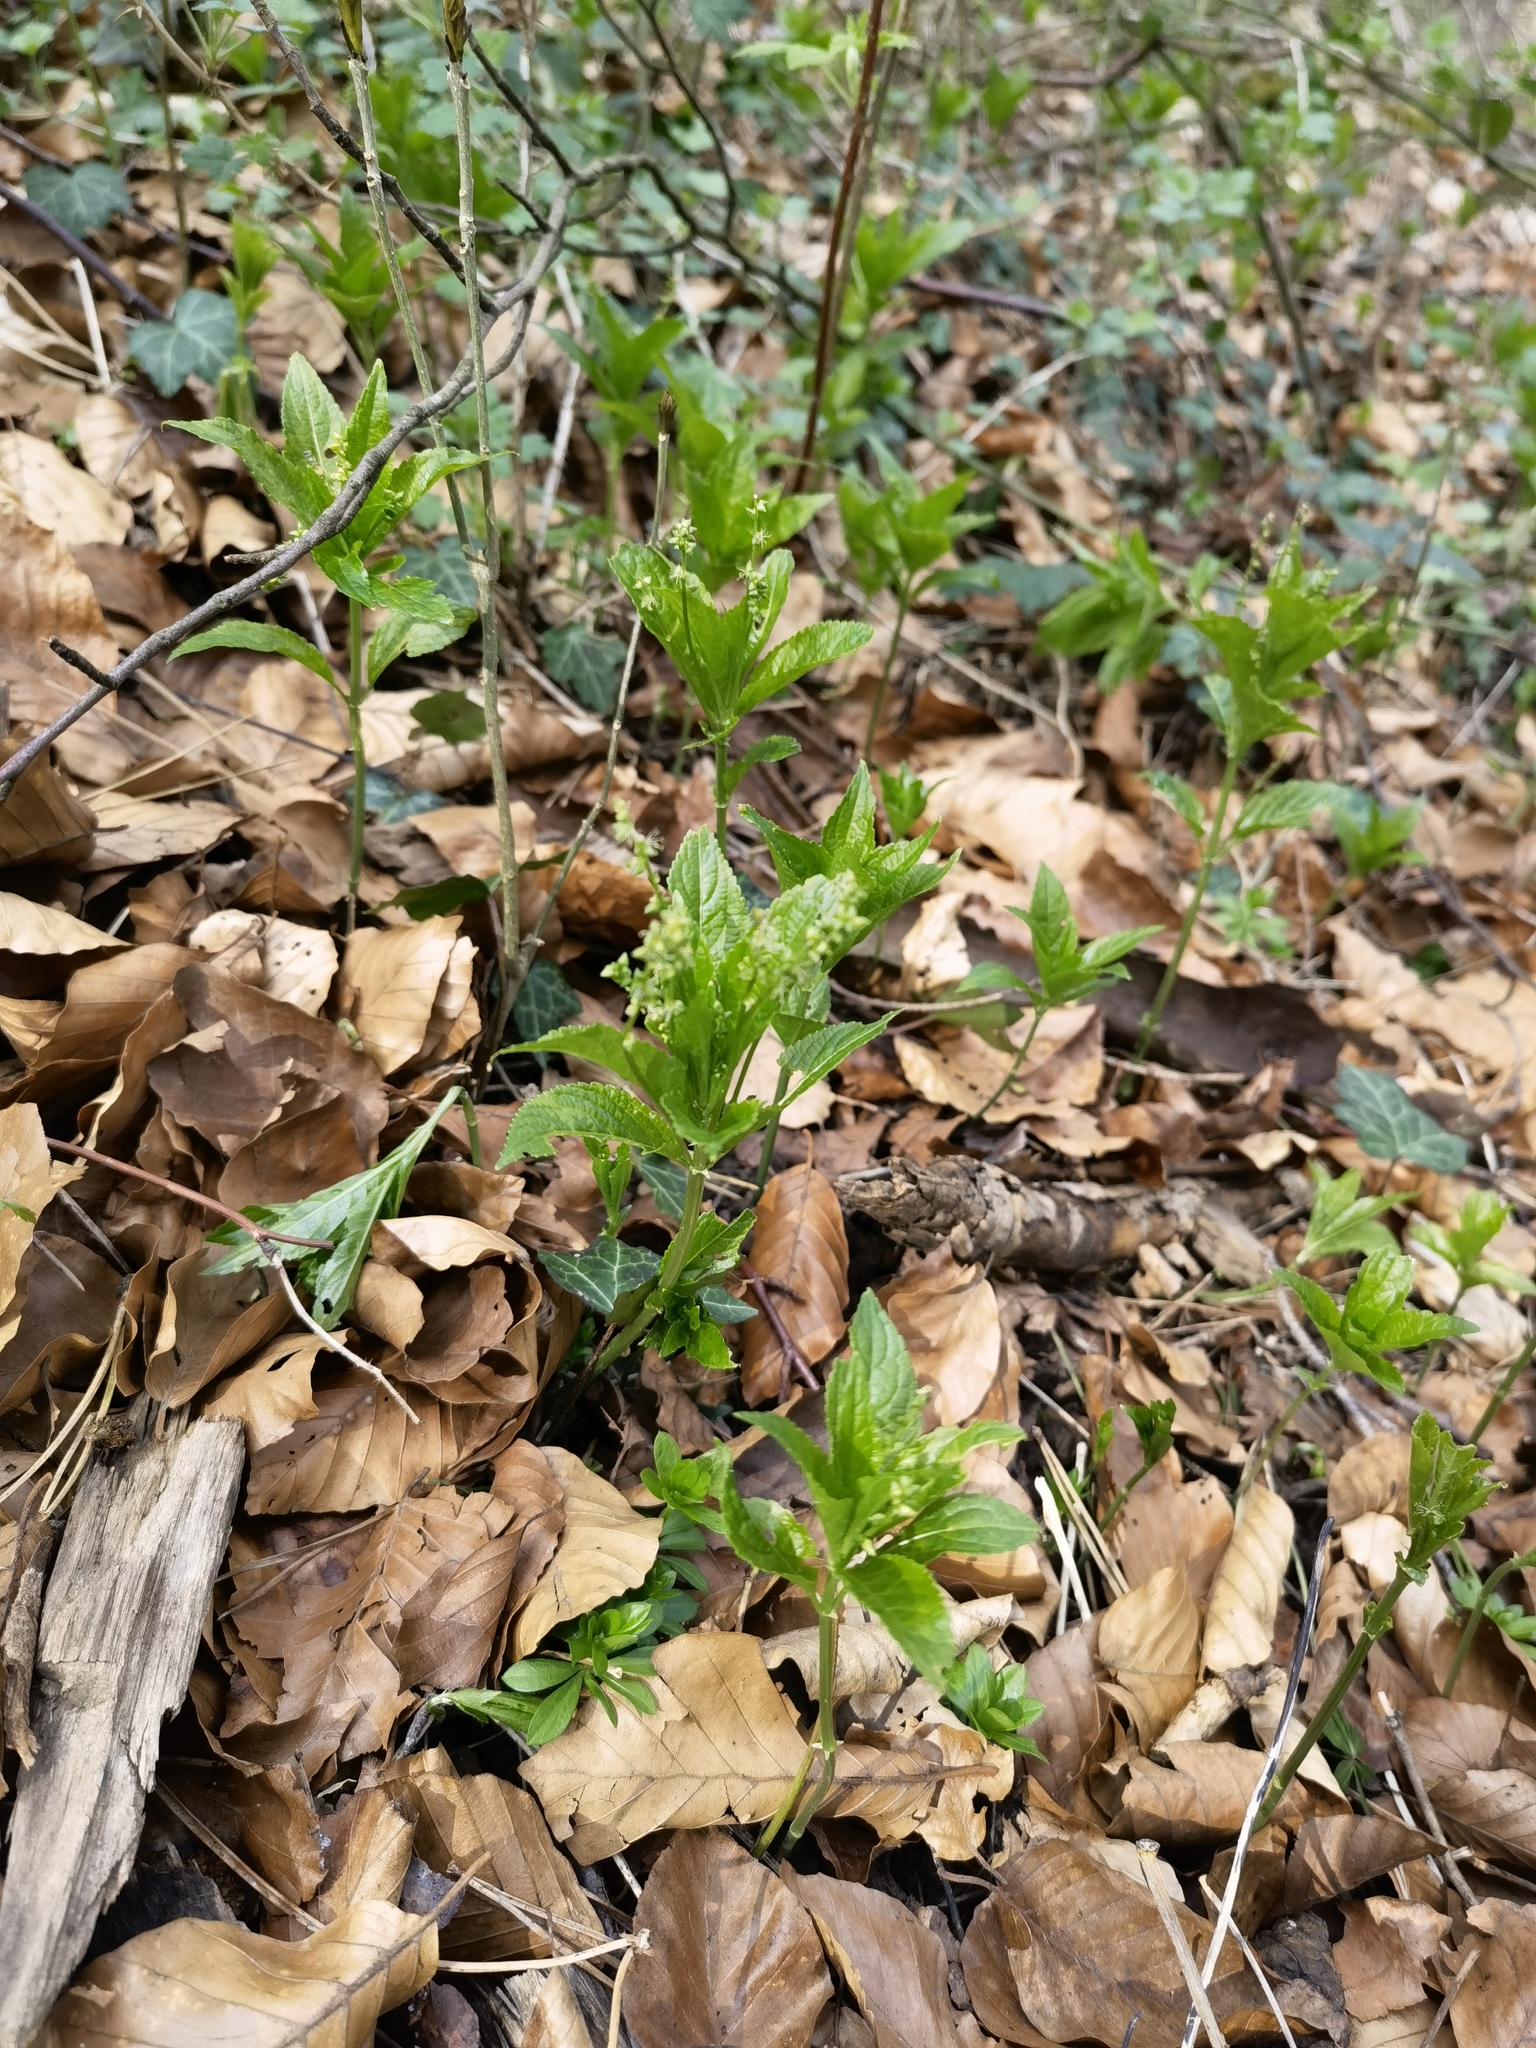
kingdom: Plantae
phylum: Tracheophyta
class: Magnoliopsida
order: Malpighiales
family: Euphorbiaceae
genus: Mercurialis
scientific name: Mercurialis perennis
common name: Dog mercury
